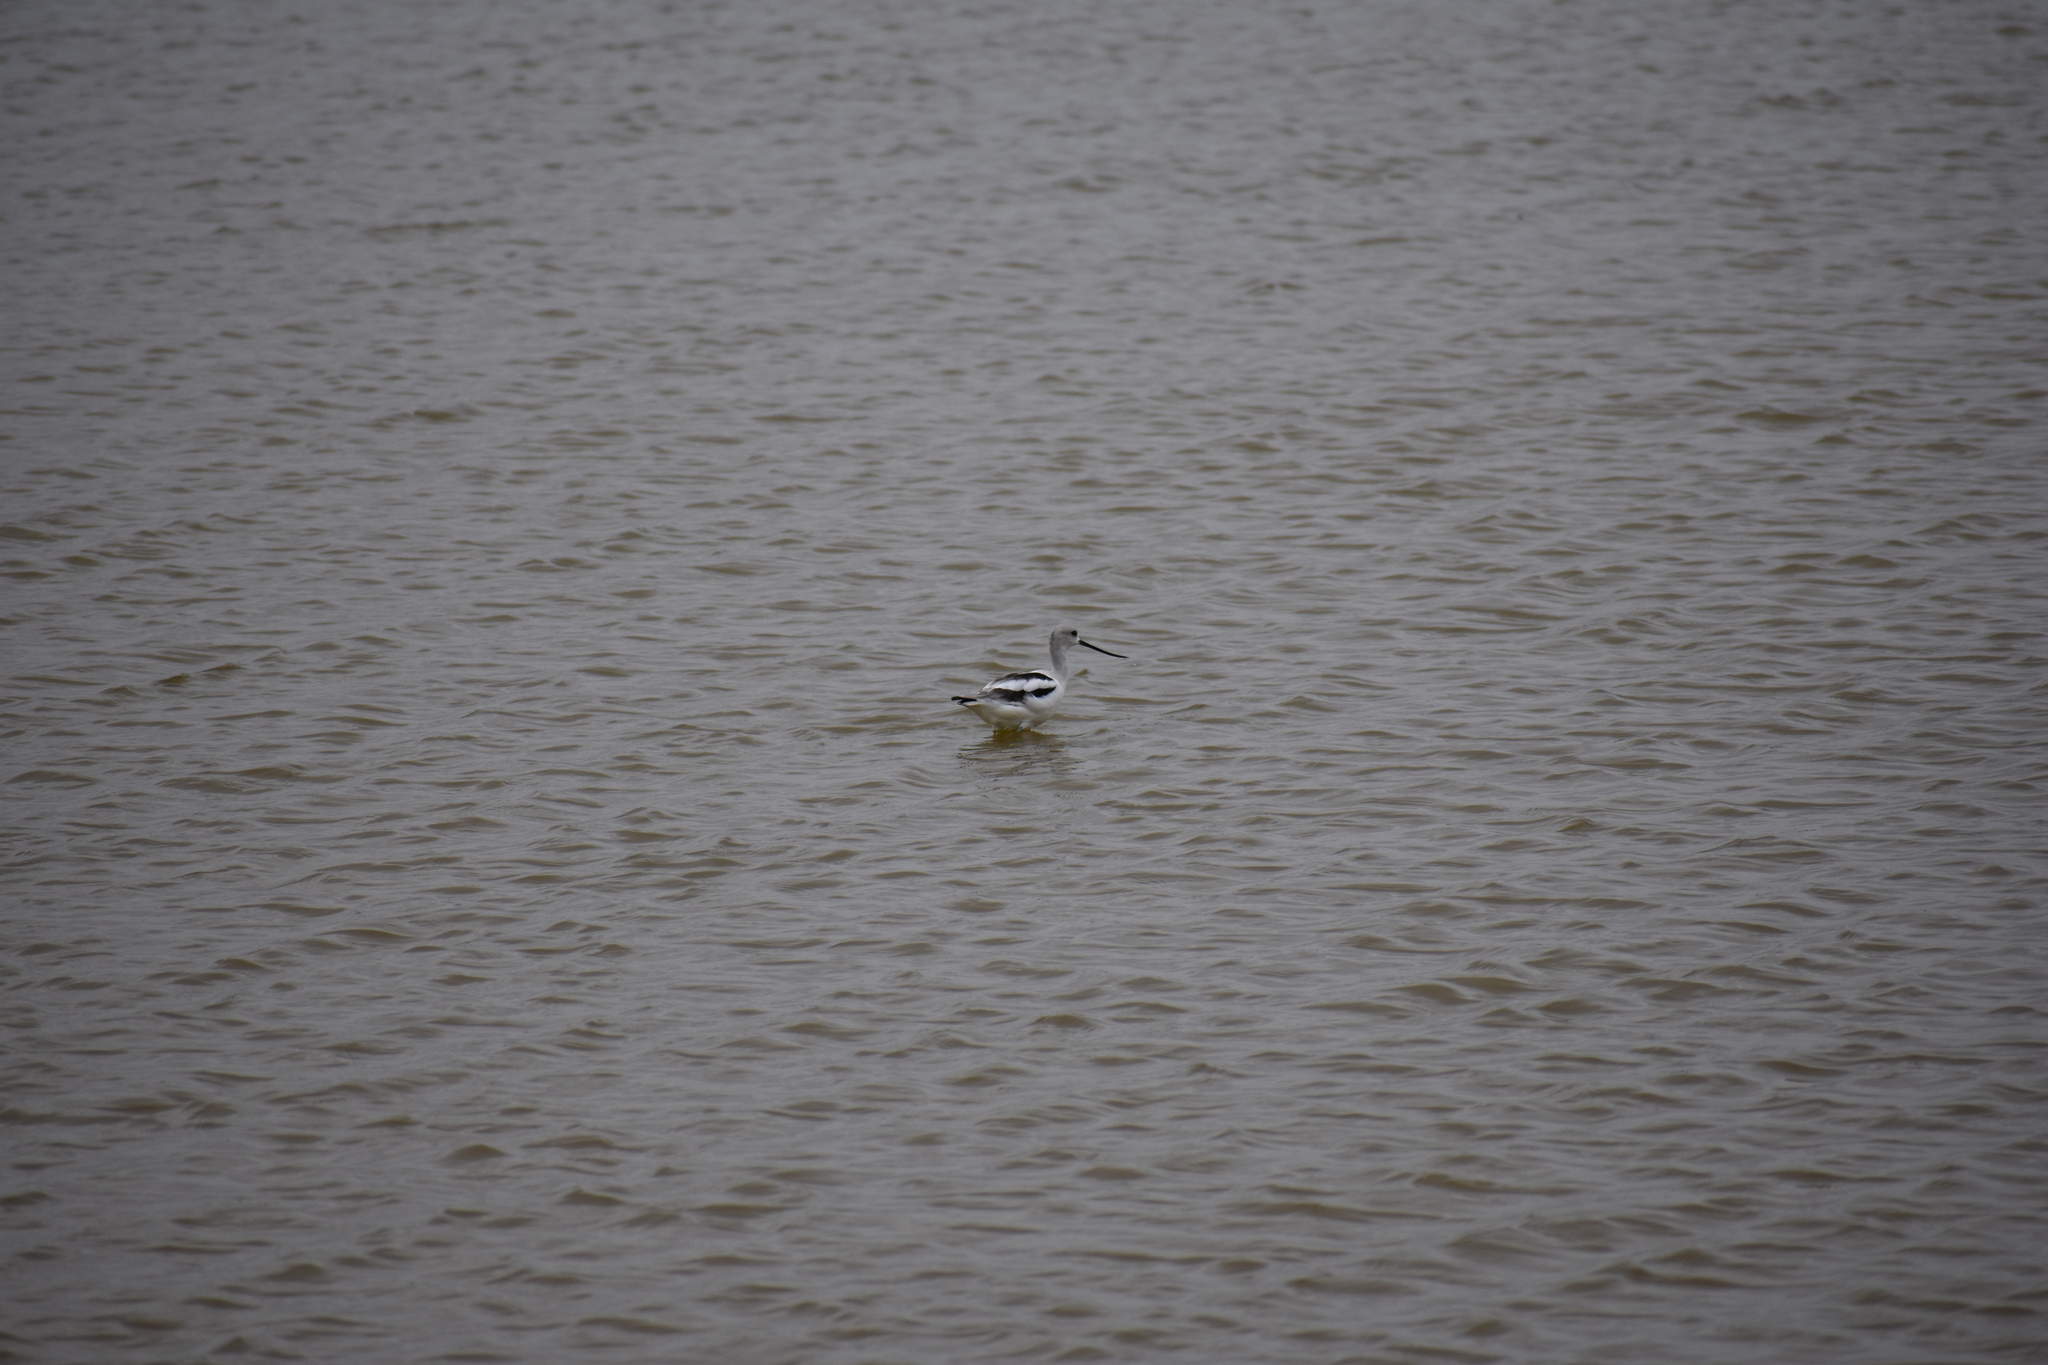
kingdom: Animalia
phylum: Chordata
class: Aves
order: Charadriiformes
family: Recurvirostridae
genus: Recurvirostra
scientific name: Recurvirostra americana
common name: American avocet
